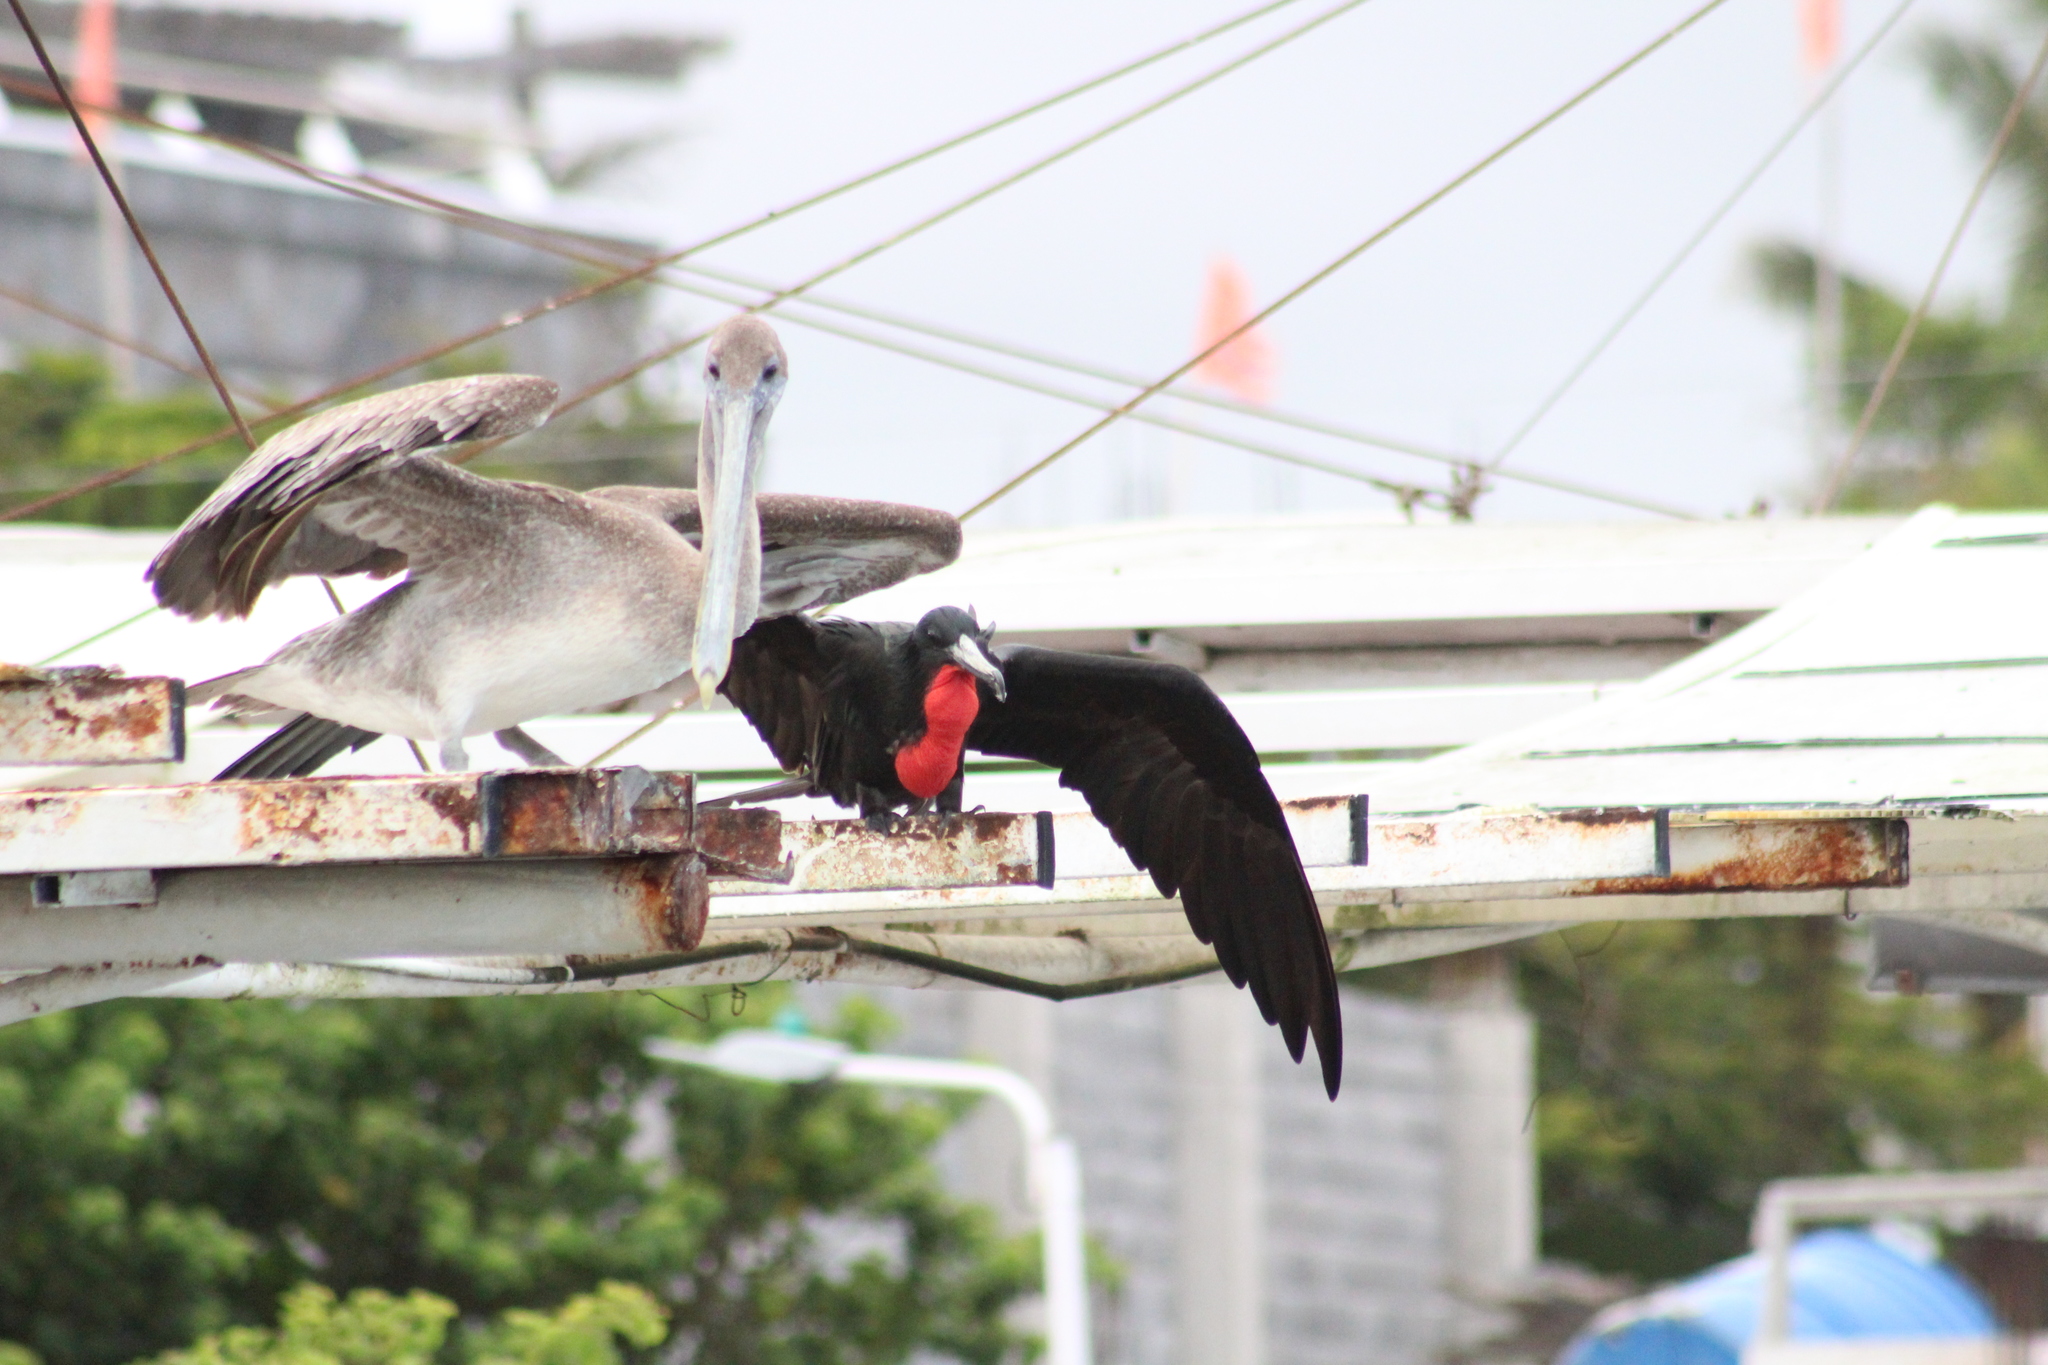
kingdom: Animalia
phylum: Chordata
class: Aves
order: Pelecaniformes
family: Pelecanidae
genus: Pelecanus
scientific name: Pelecanus occidentalis
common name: Brown pelican
